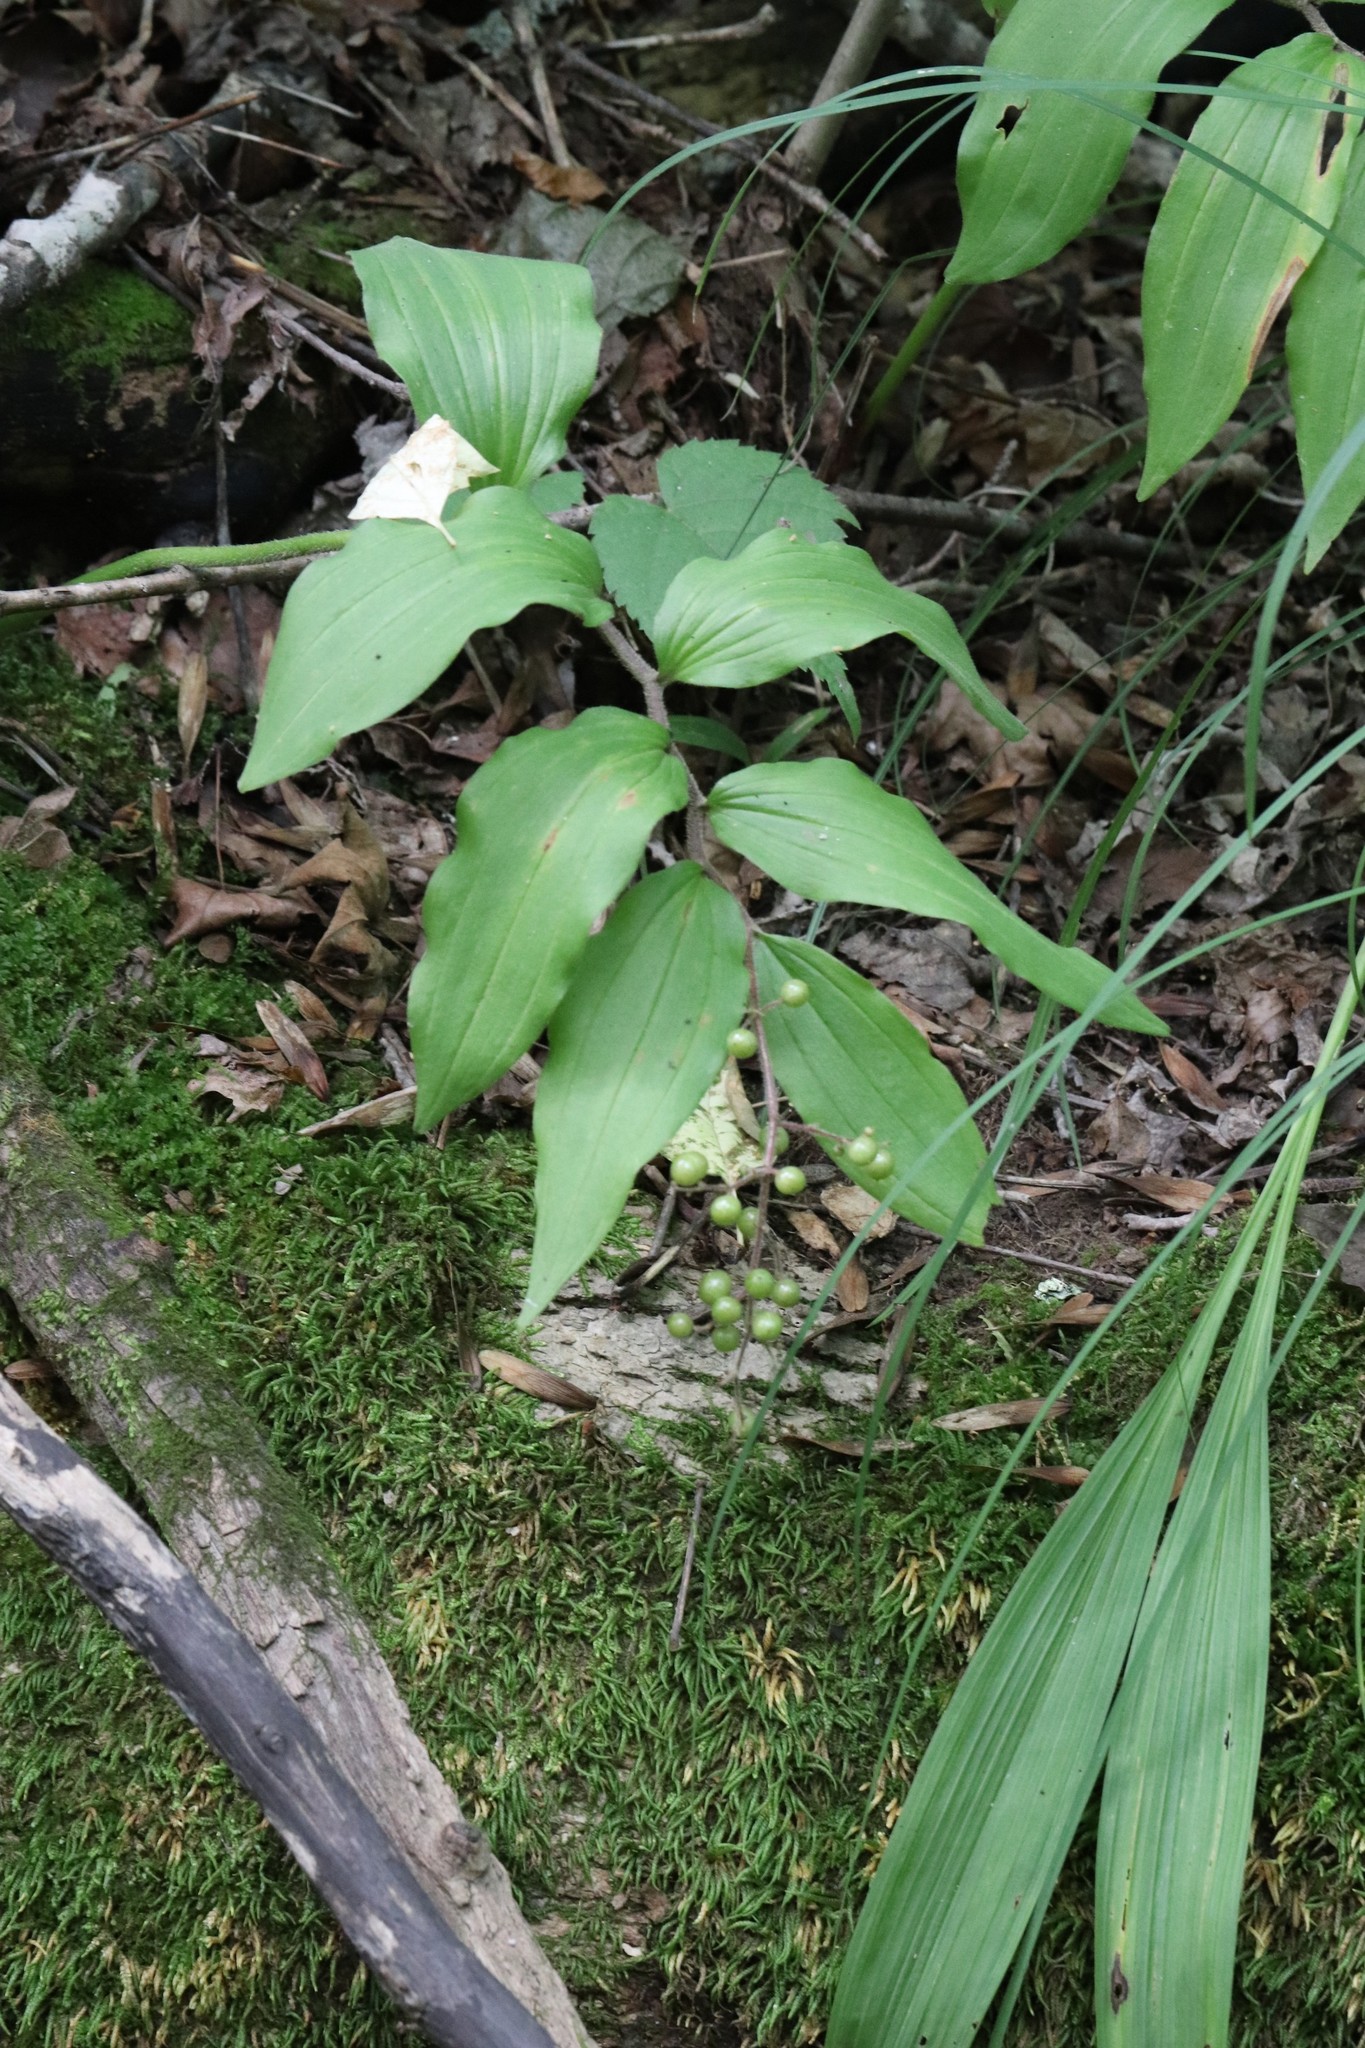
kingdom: Plantae
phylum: Tracheophyta
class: Liliopsida
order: Asparagales
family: Asparagaceae
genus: Maianthemum
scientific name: Maianthemum japonicum
